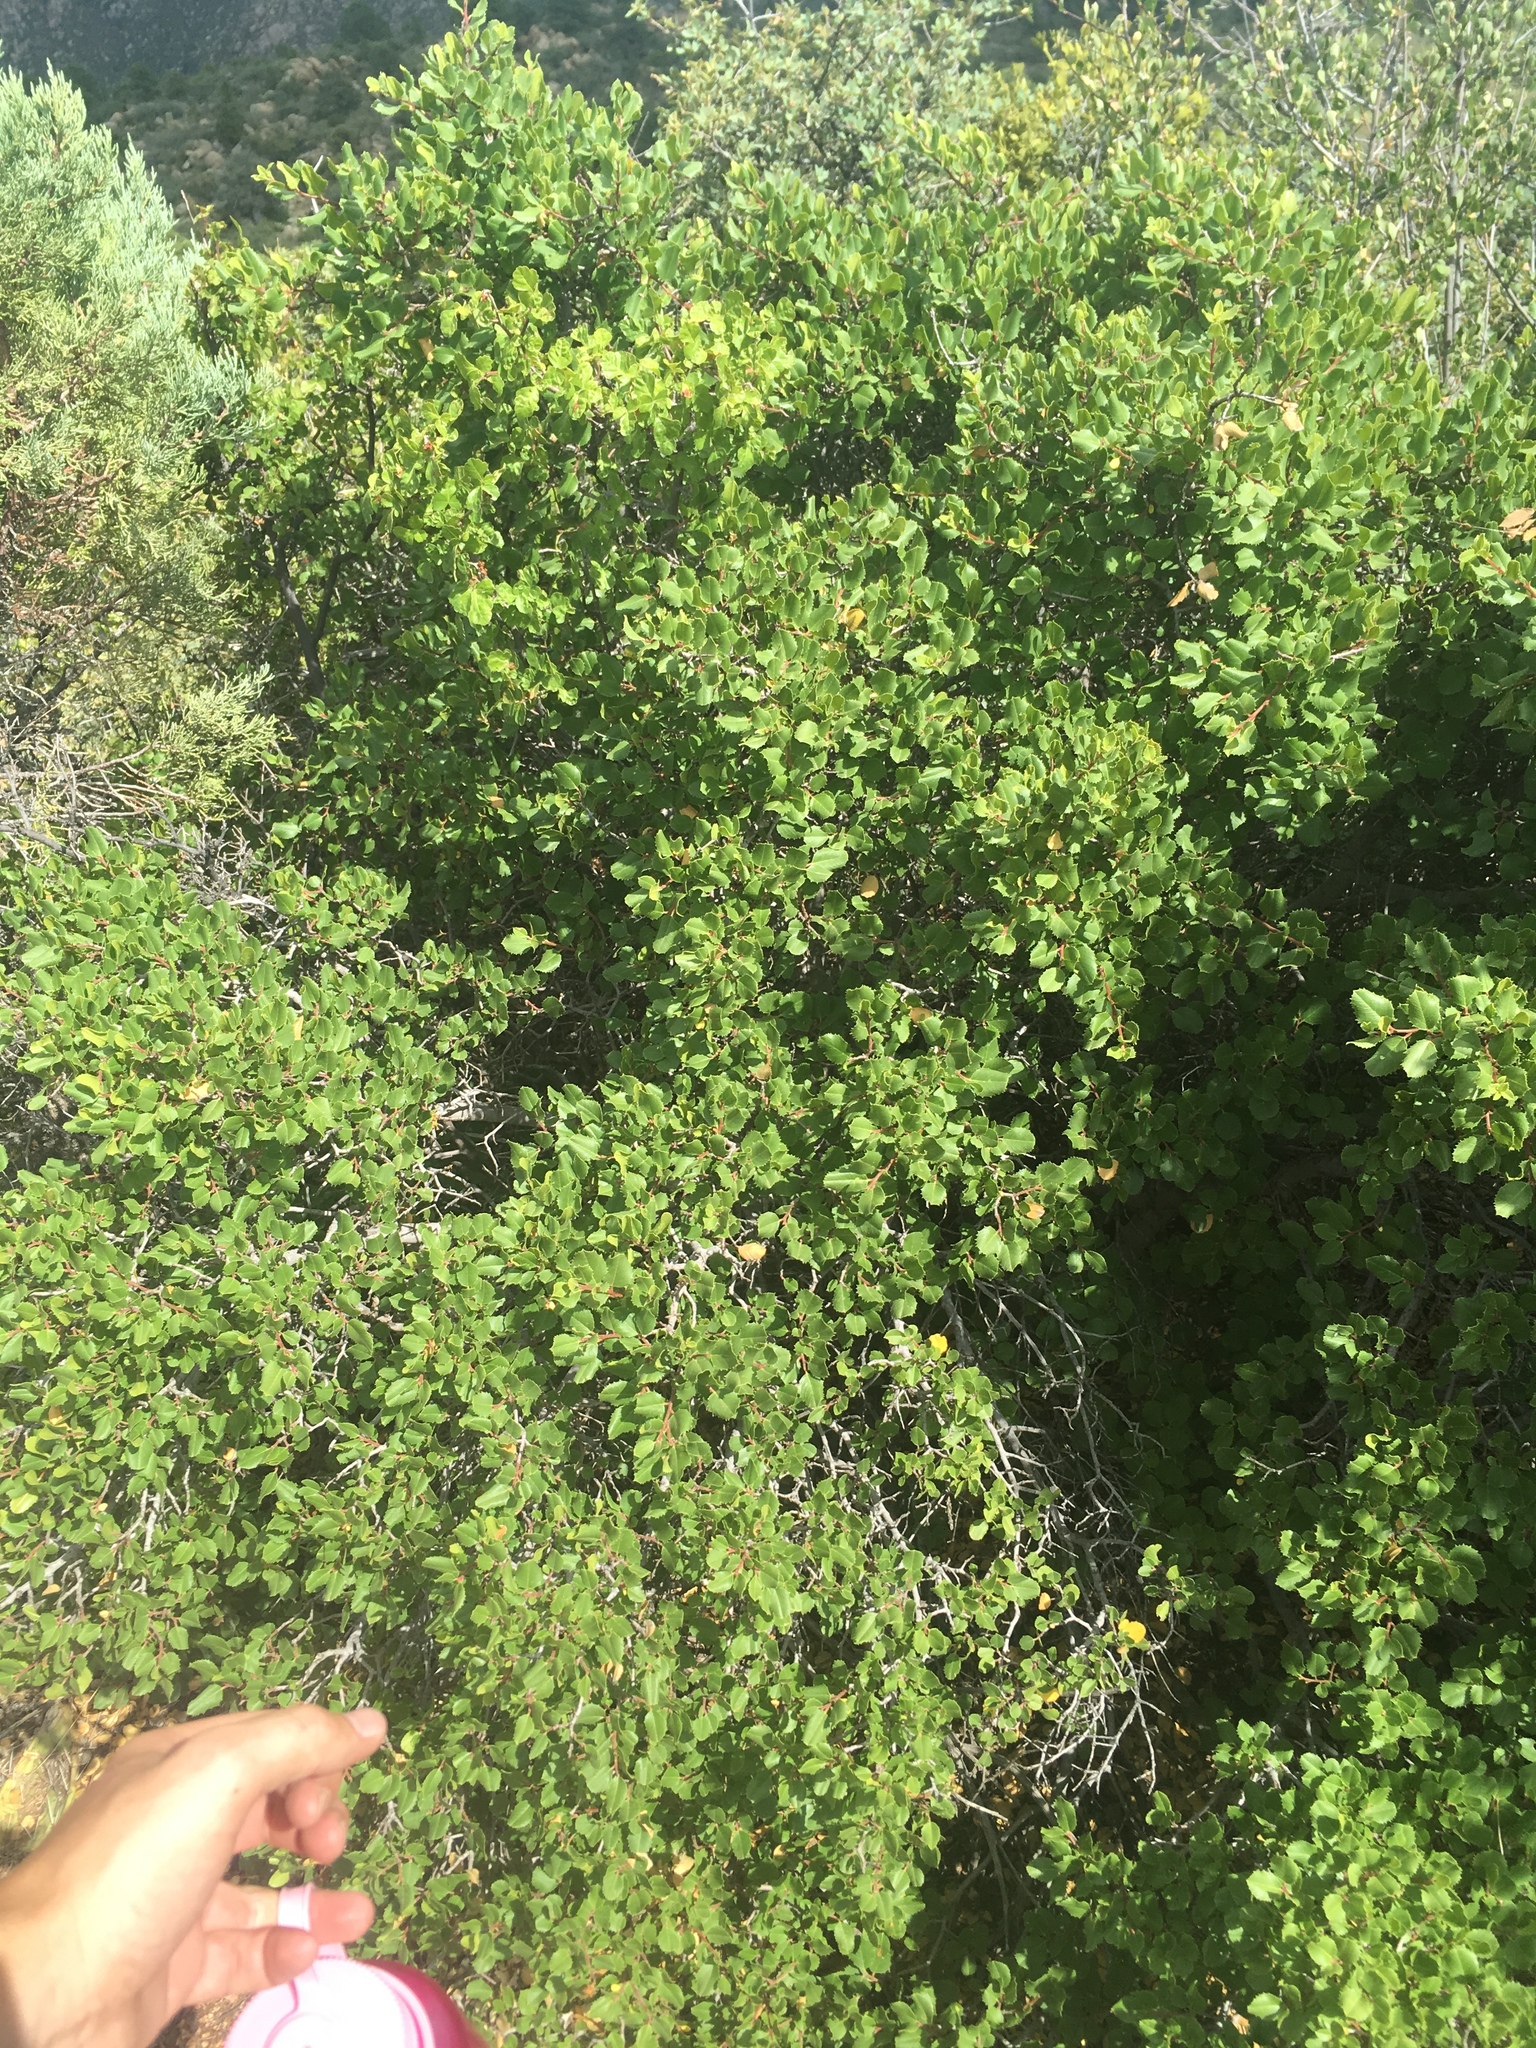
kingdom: Plantae
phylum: Tracheophyta
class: Magnoliopsida
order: Rosales
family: Rhamnaceae
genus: Endotropis
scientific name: Endotropis crocea
